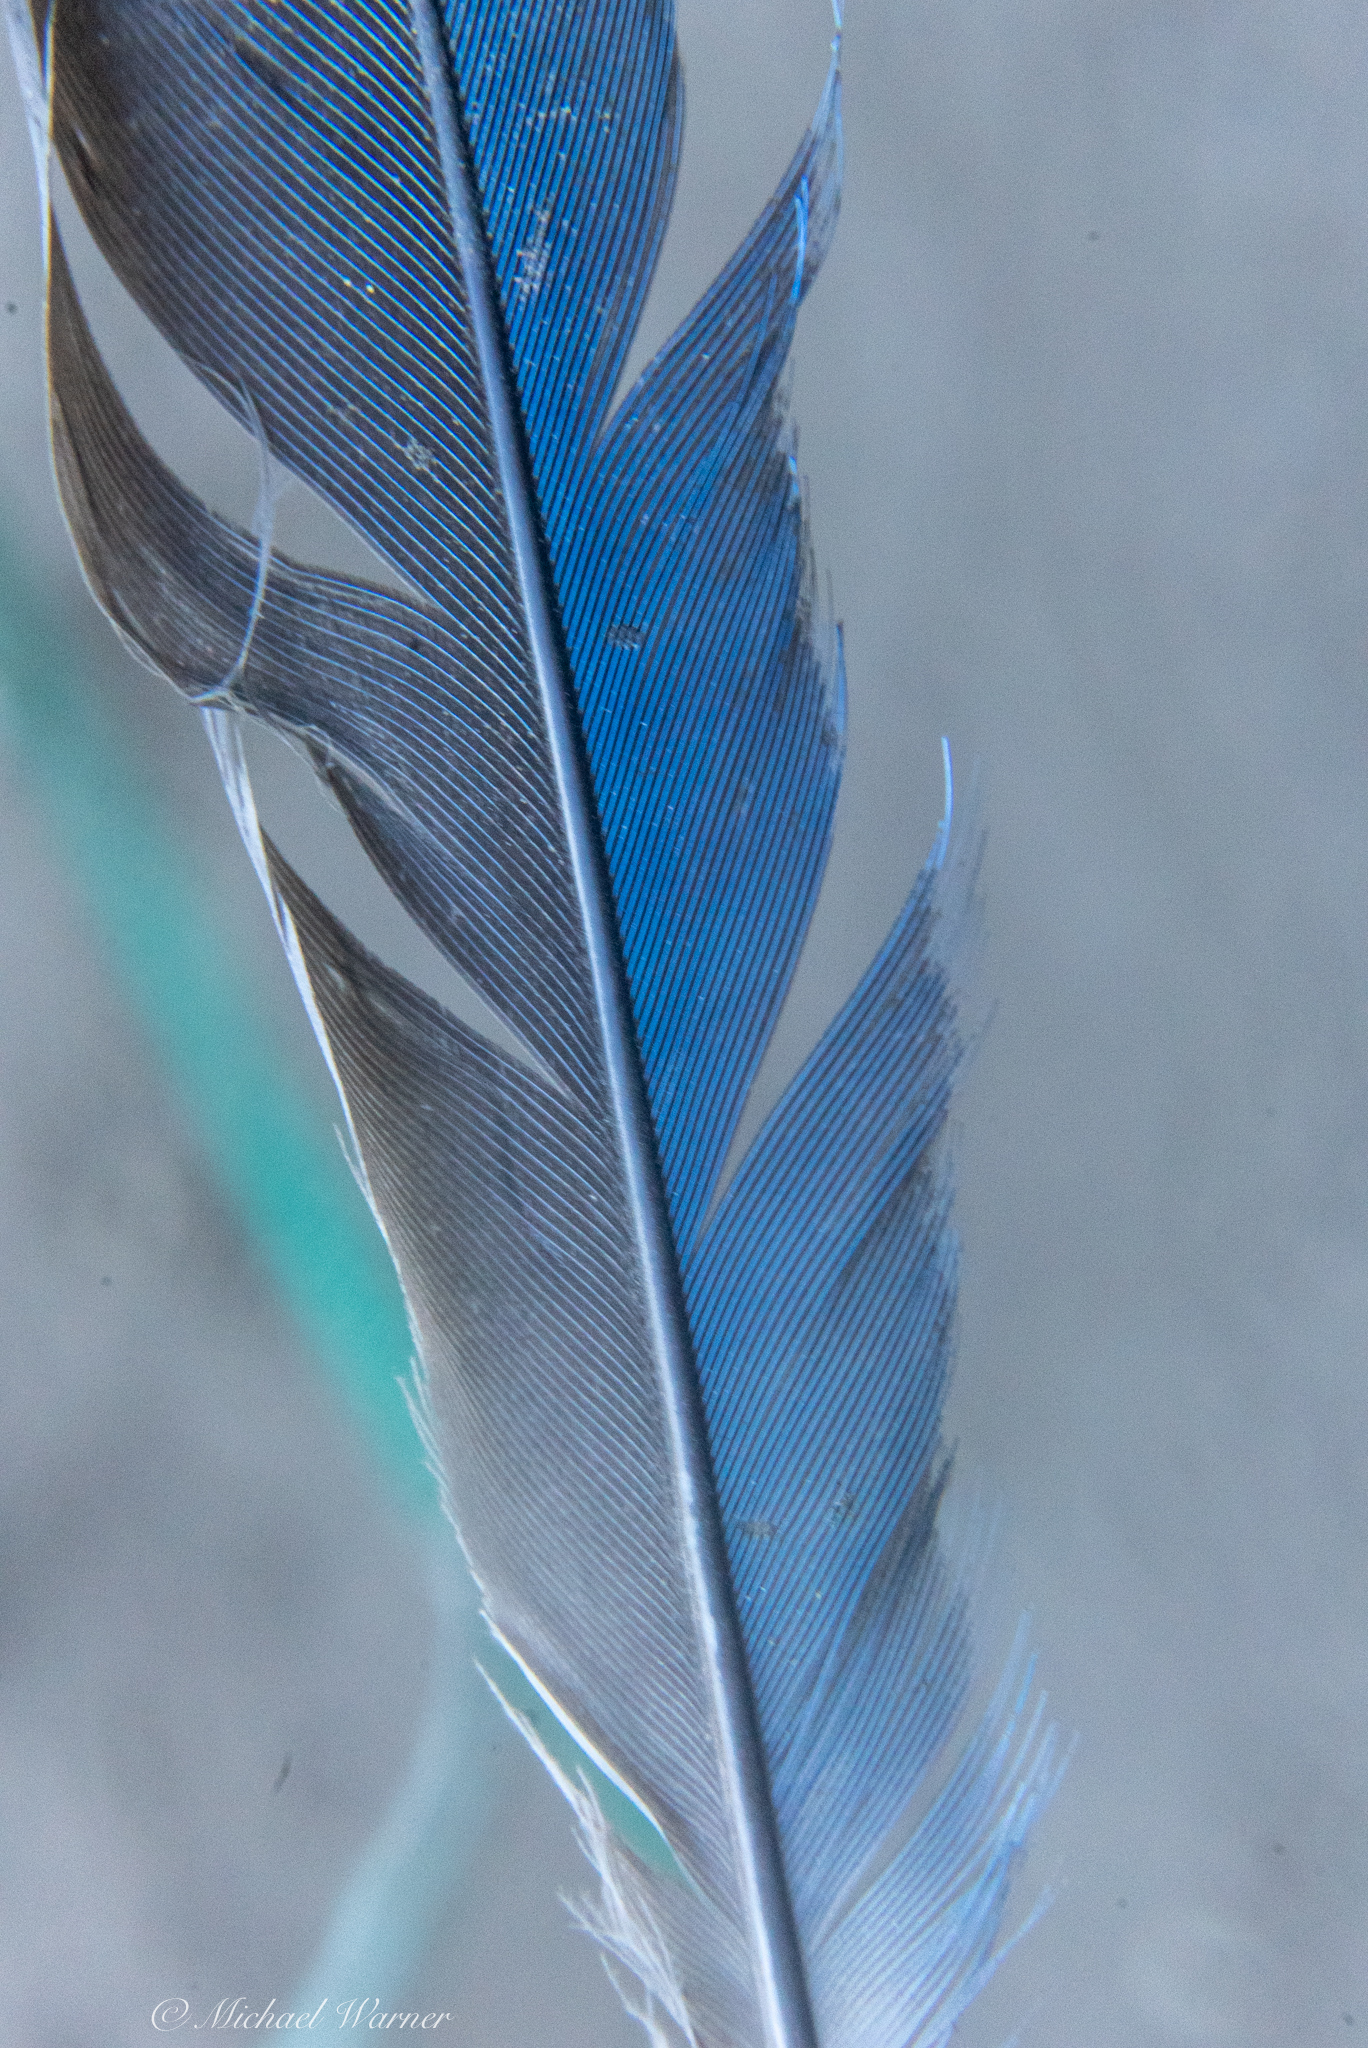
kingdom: Animalia
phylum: Chordata
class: Aves
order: Passeriformes
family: Corvidae
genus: Cyanocitta
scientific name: Cyanocitta stelleri
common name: Steller's jay
